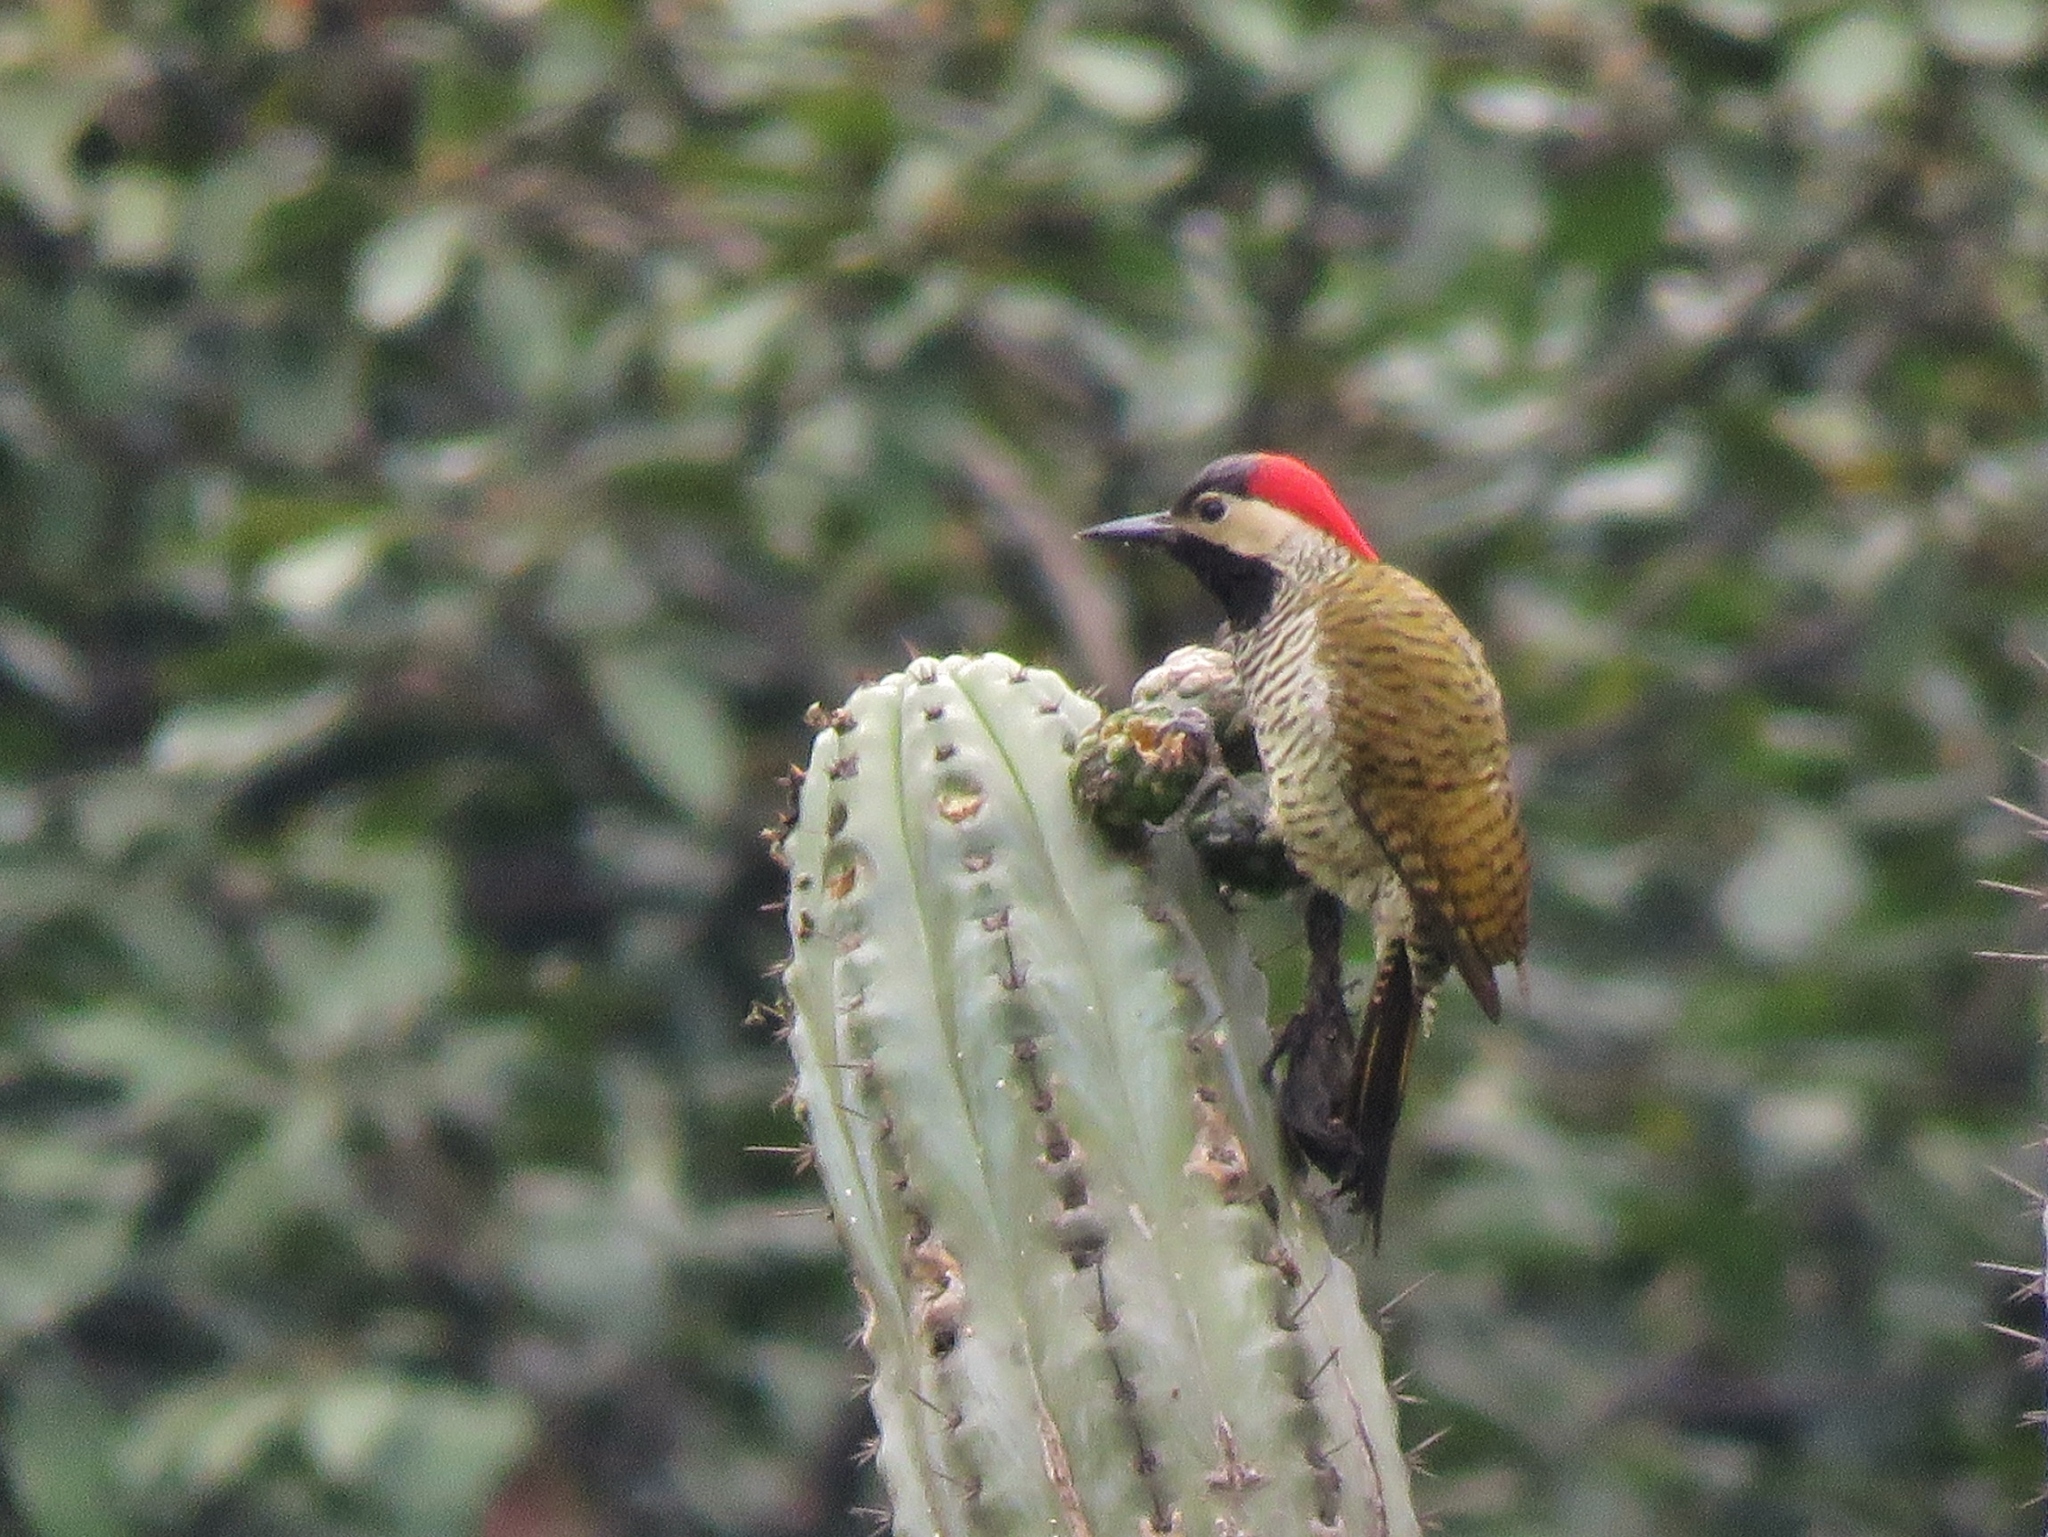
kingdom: Animalia
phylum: Chordata
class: Aves
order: Piciformes
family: Picidae
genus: Colaptes
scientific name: Colaptes atricollis
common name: Black-necked woodpecker
